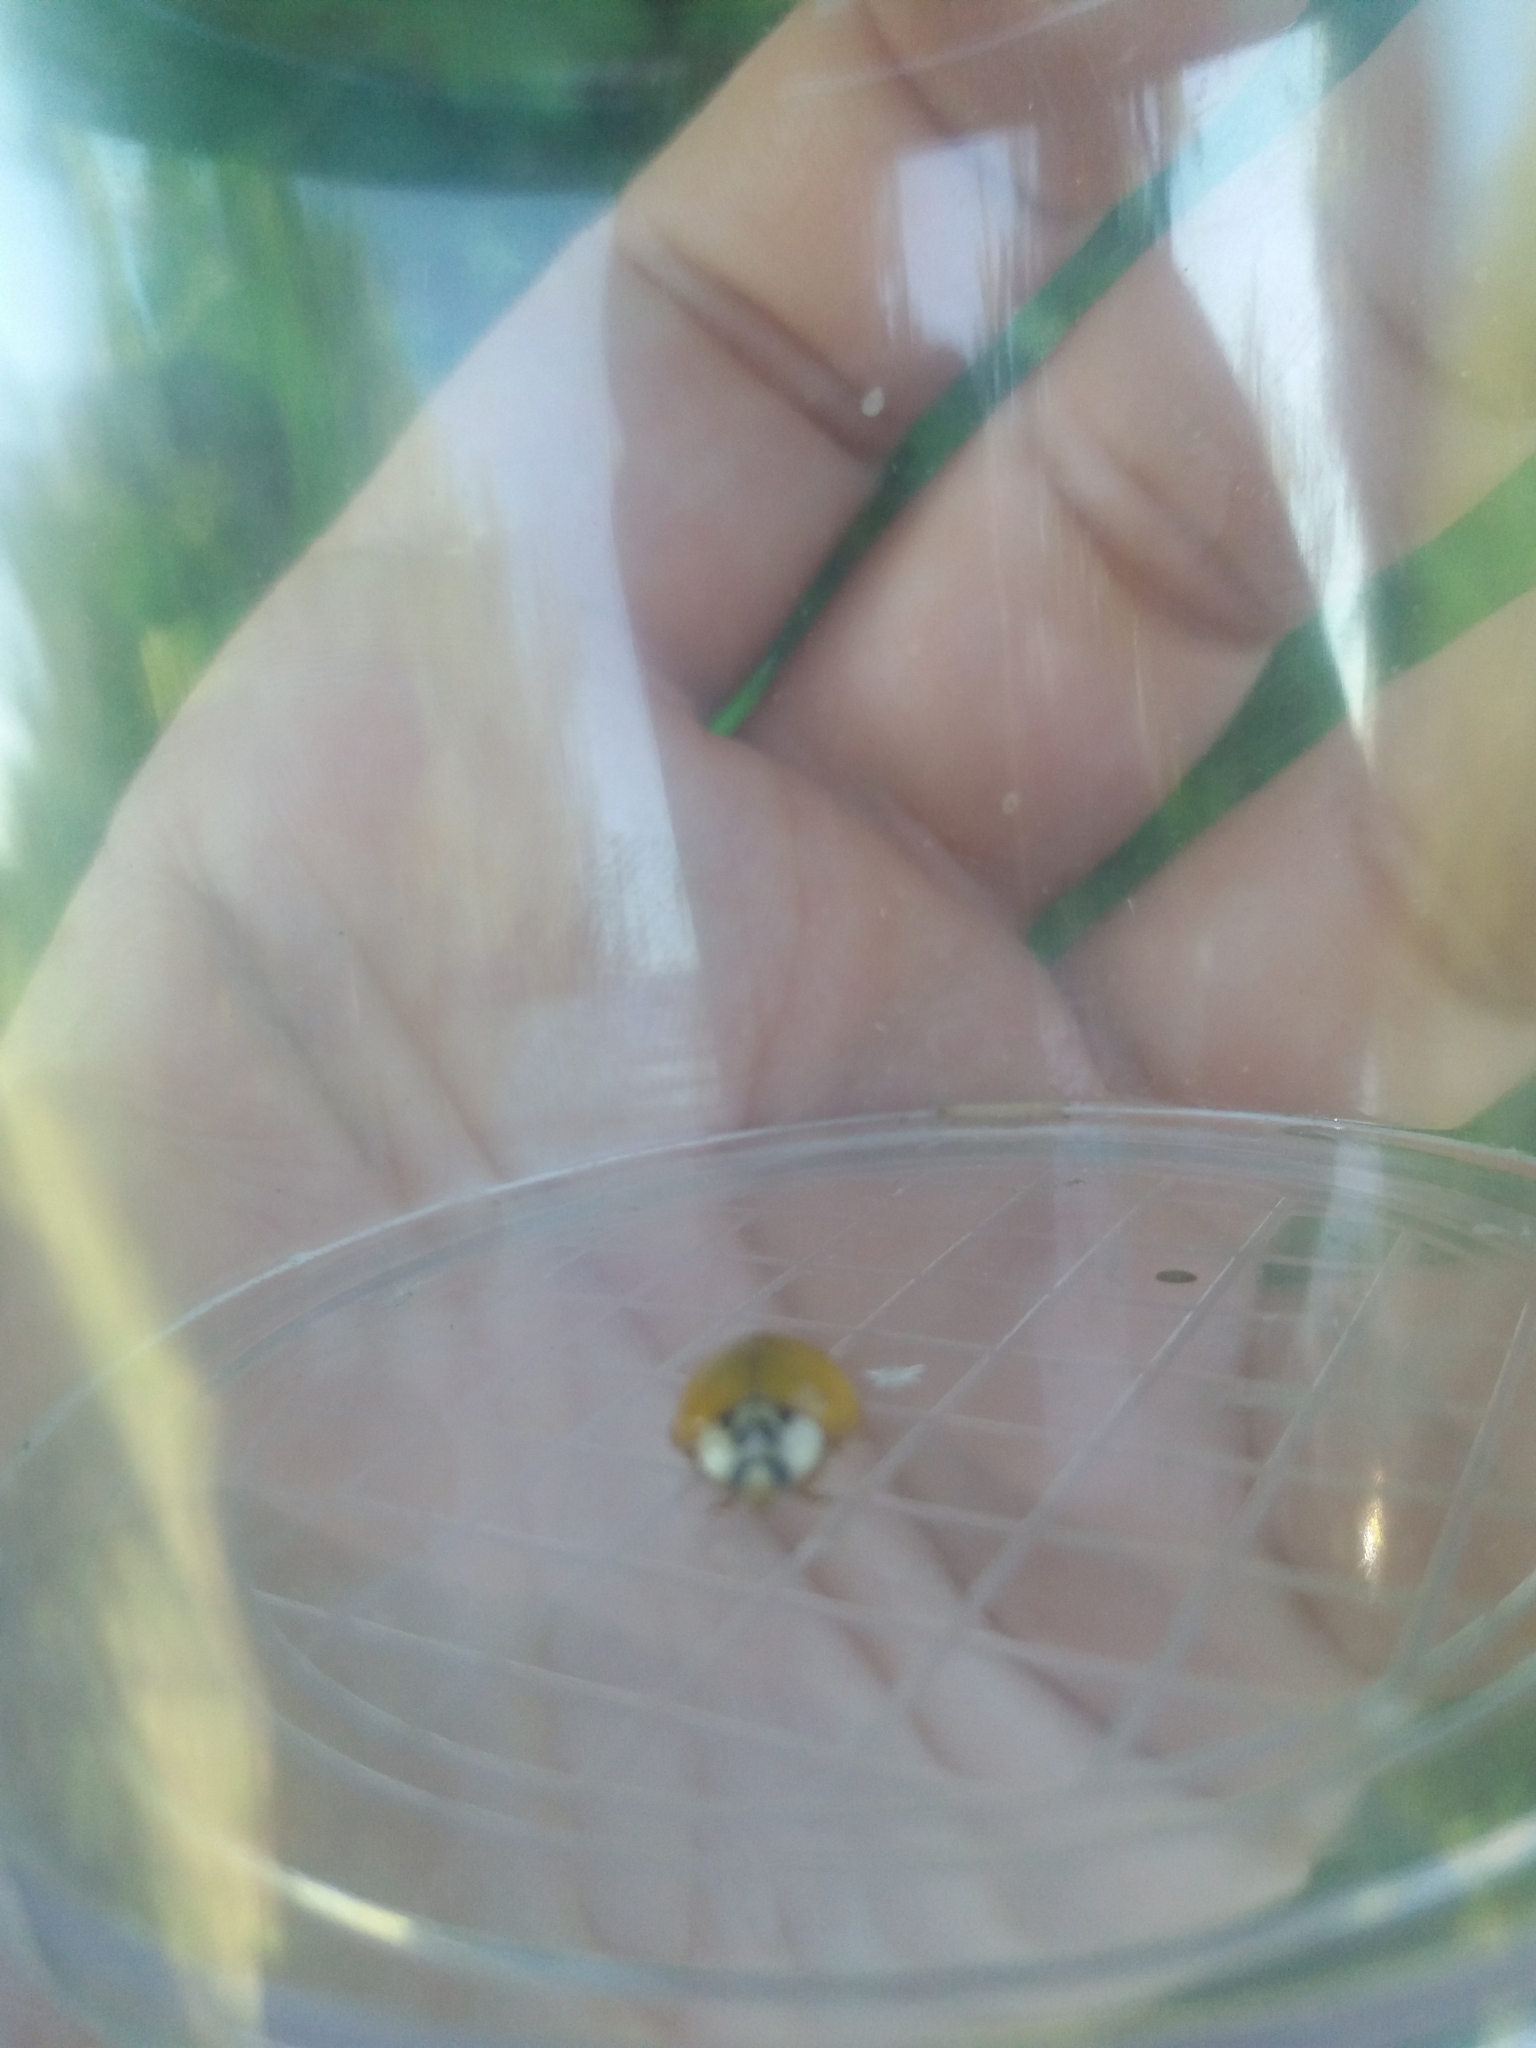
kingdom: Animalia
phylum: Arthropoda
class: Insecta
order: Coleoptera
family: Coccinellidae
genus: Harmonia
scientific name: Harmonia axyridis
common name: Harlequin ladybird
